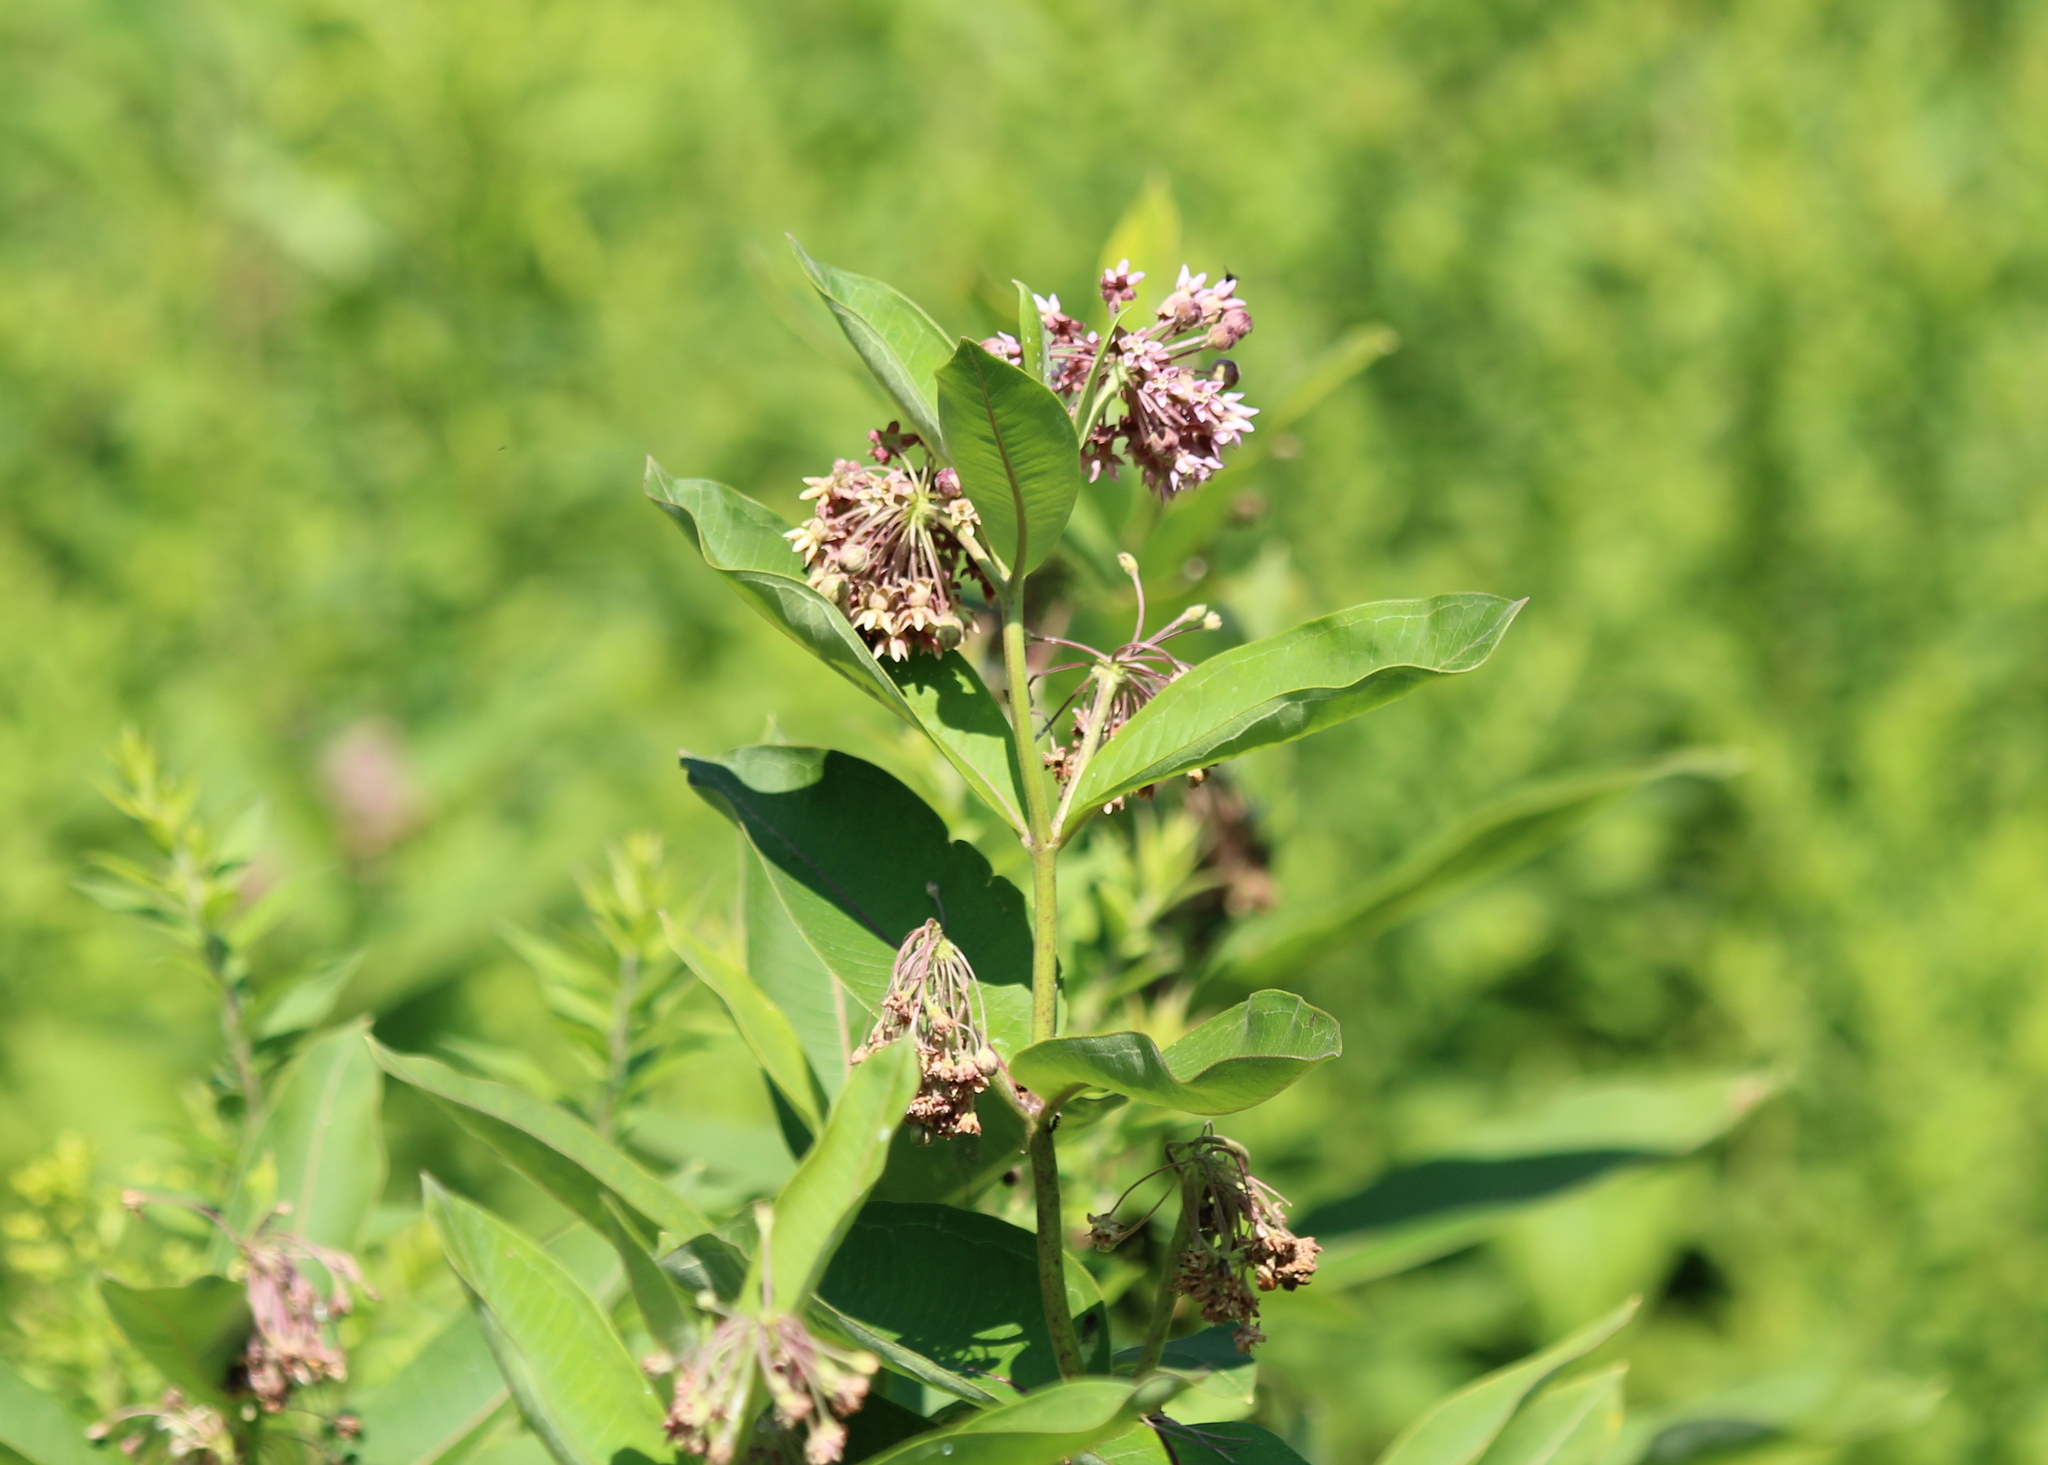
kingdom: Plantae
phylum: Tracheophyta
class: Magnoliopsida
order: Gentianales
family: Apocynaceae
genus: Asclepias
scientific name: Asclepias syriaca
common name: Common milkweed
